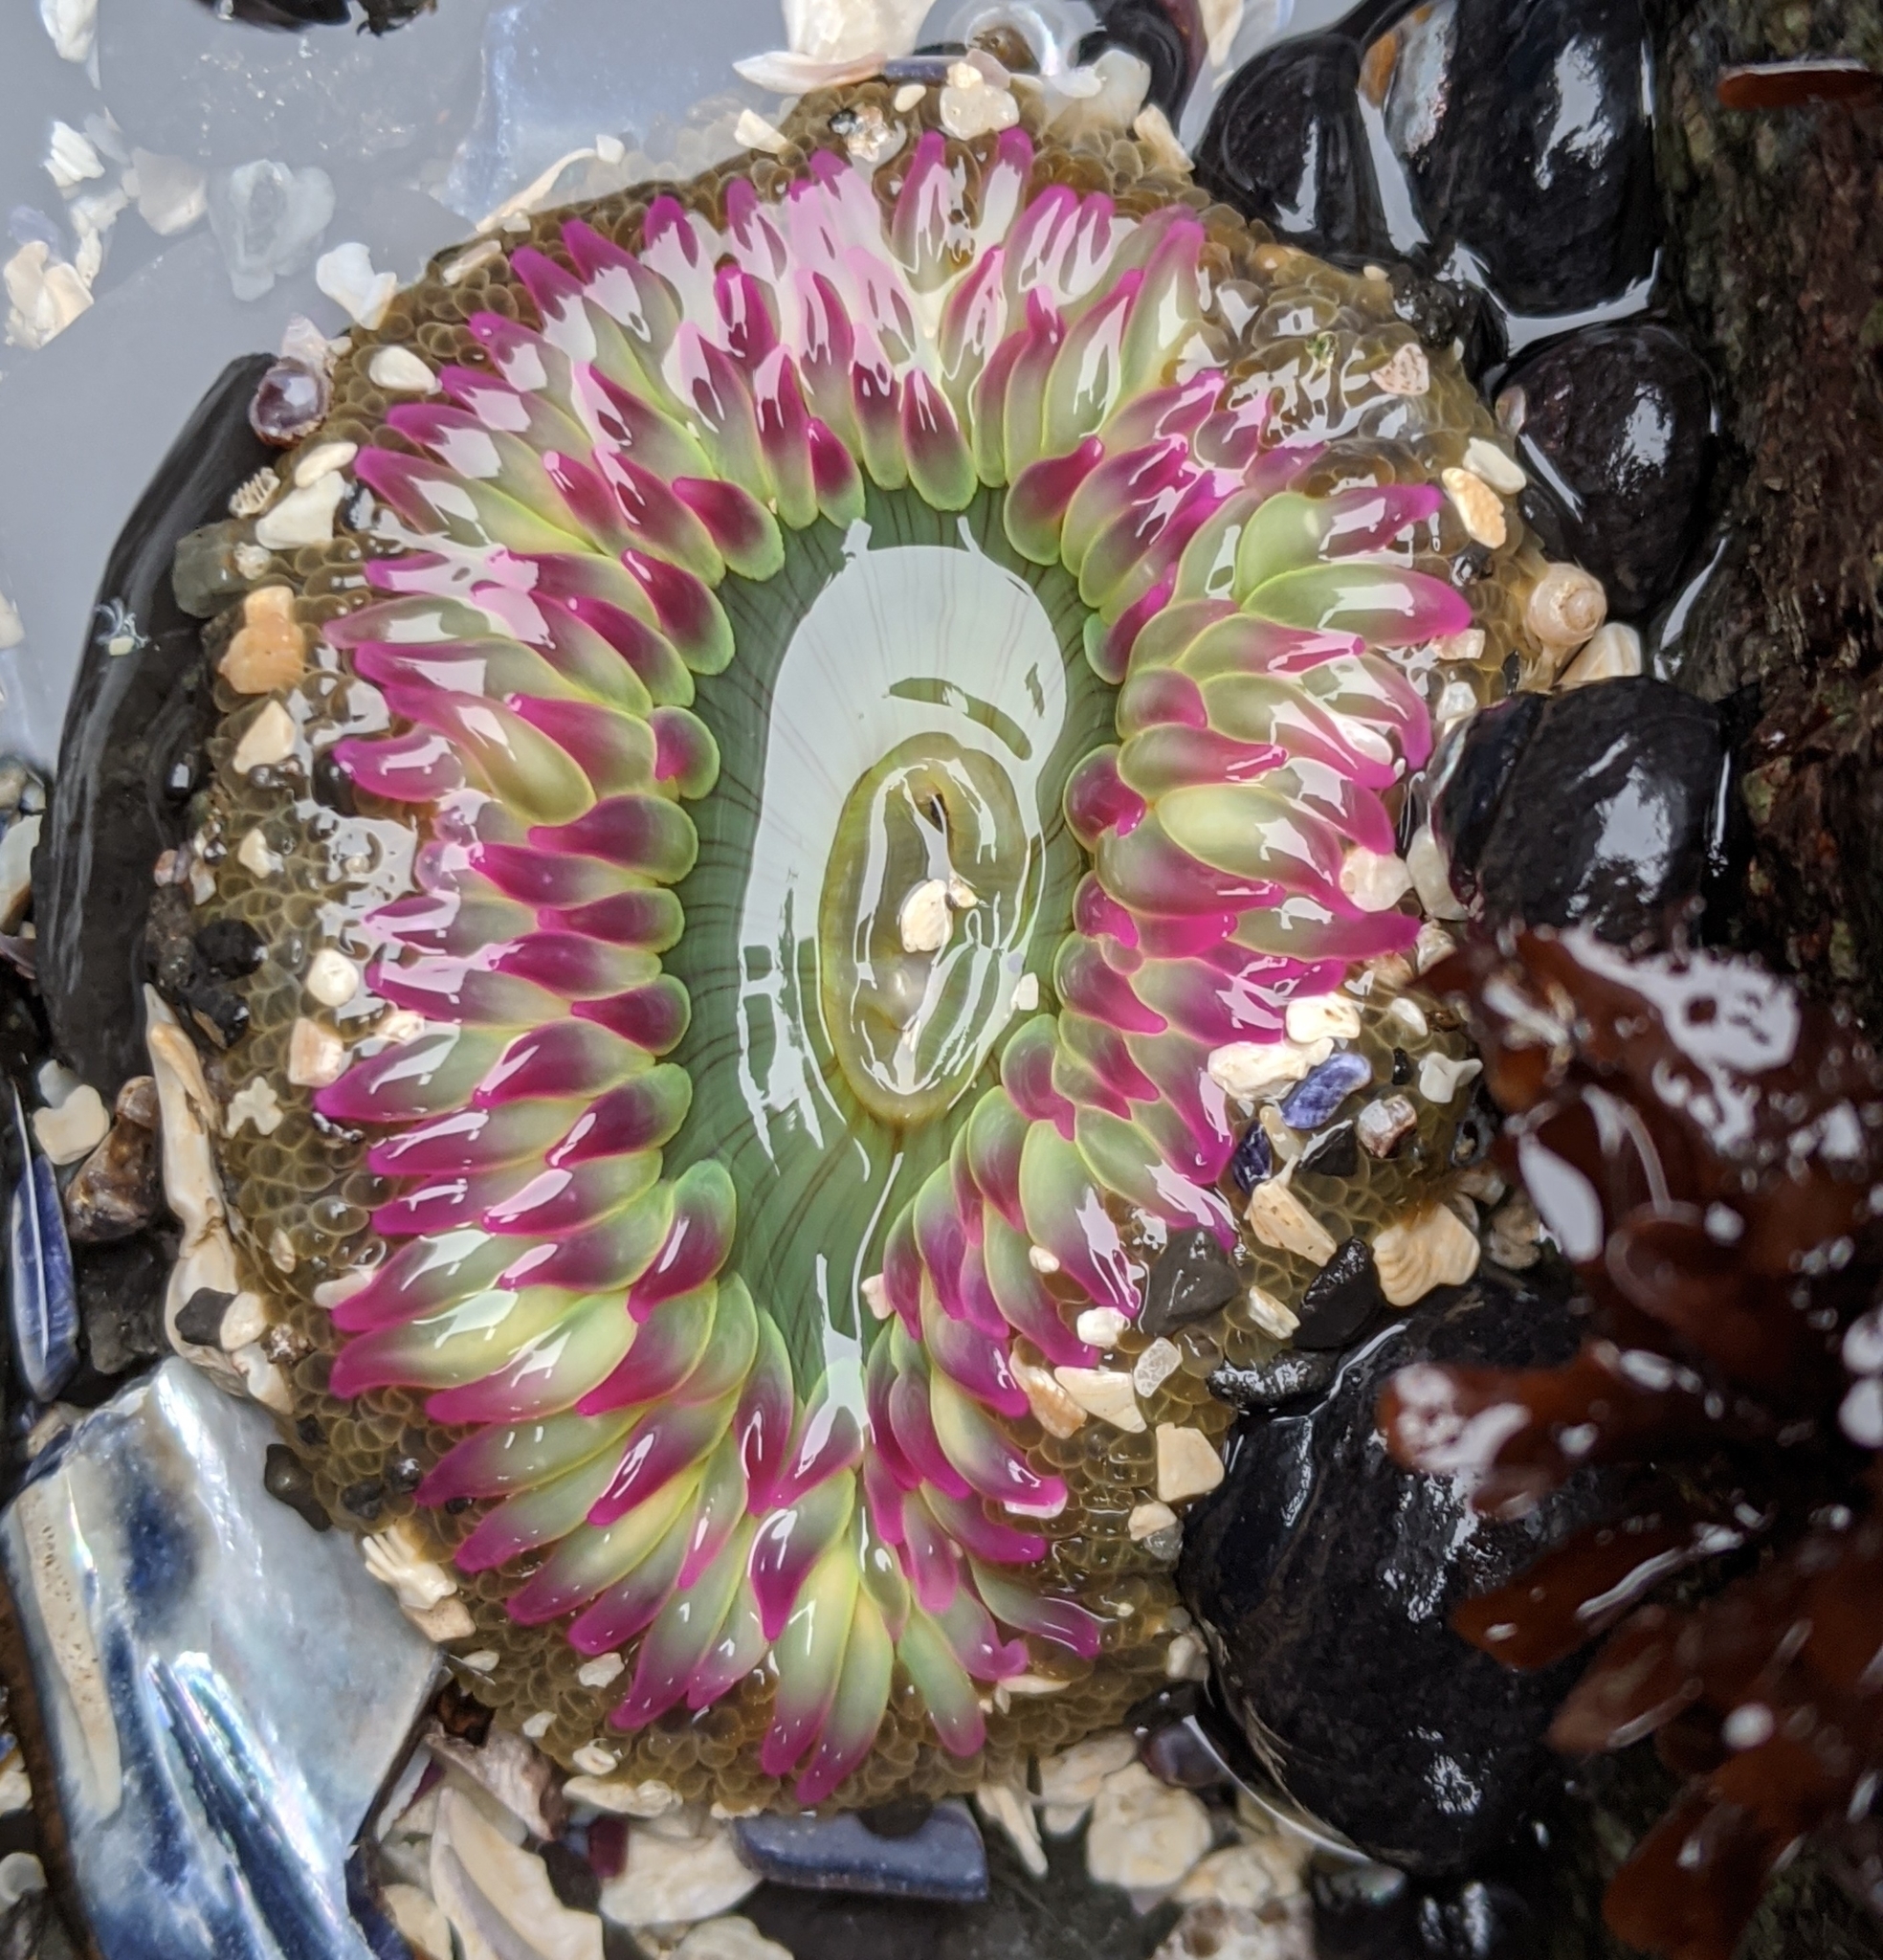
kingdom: Animalia
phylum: Cnidaria
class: Anthozoa
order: Actiniaria
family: Actiniidae
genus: Anthopleura
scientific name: Anthopleura elegantissima
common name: Clonal anemone
